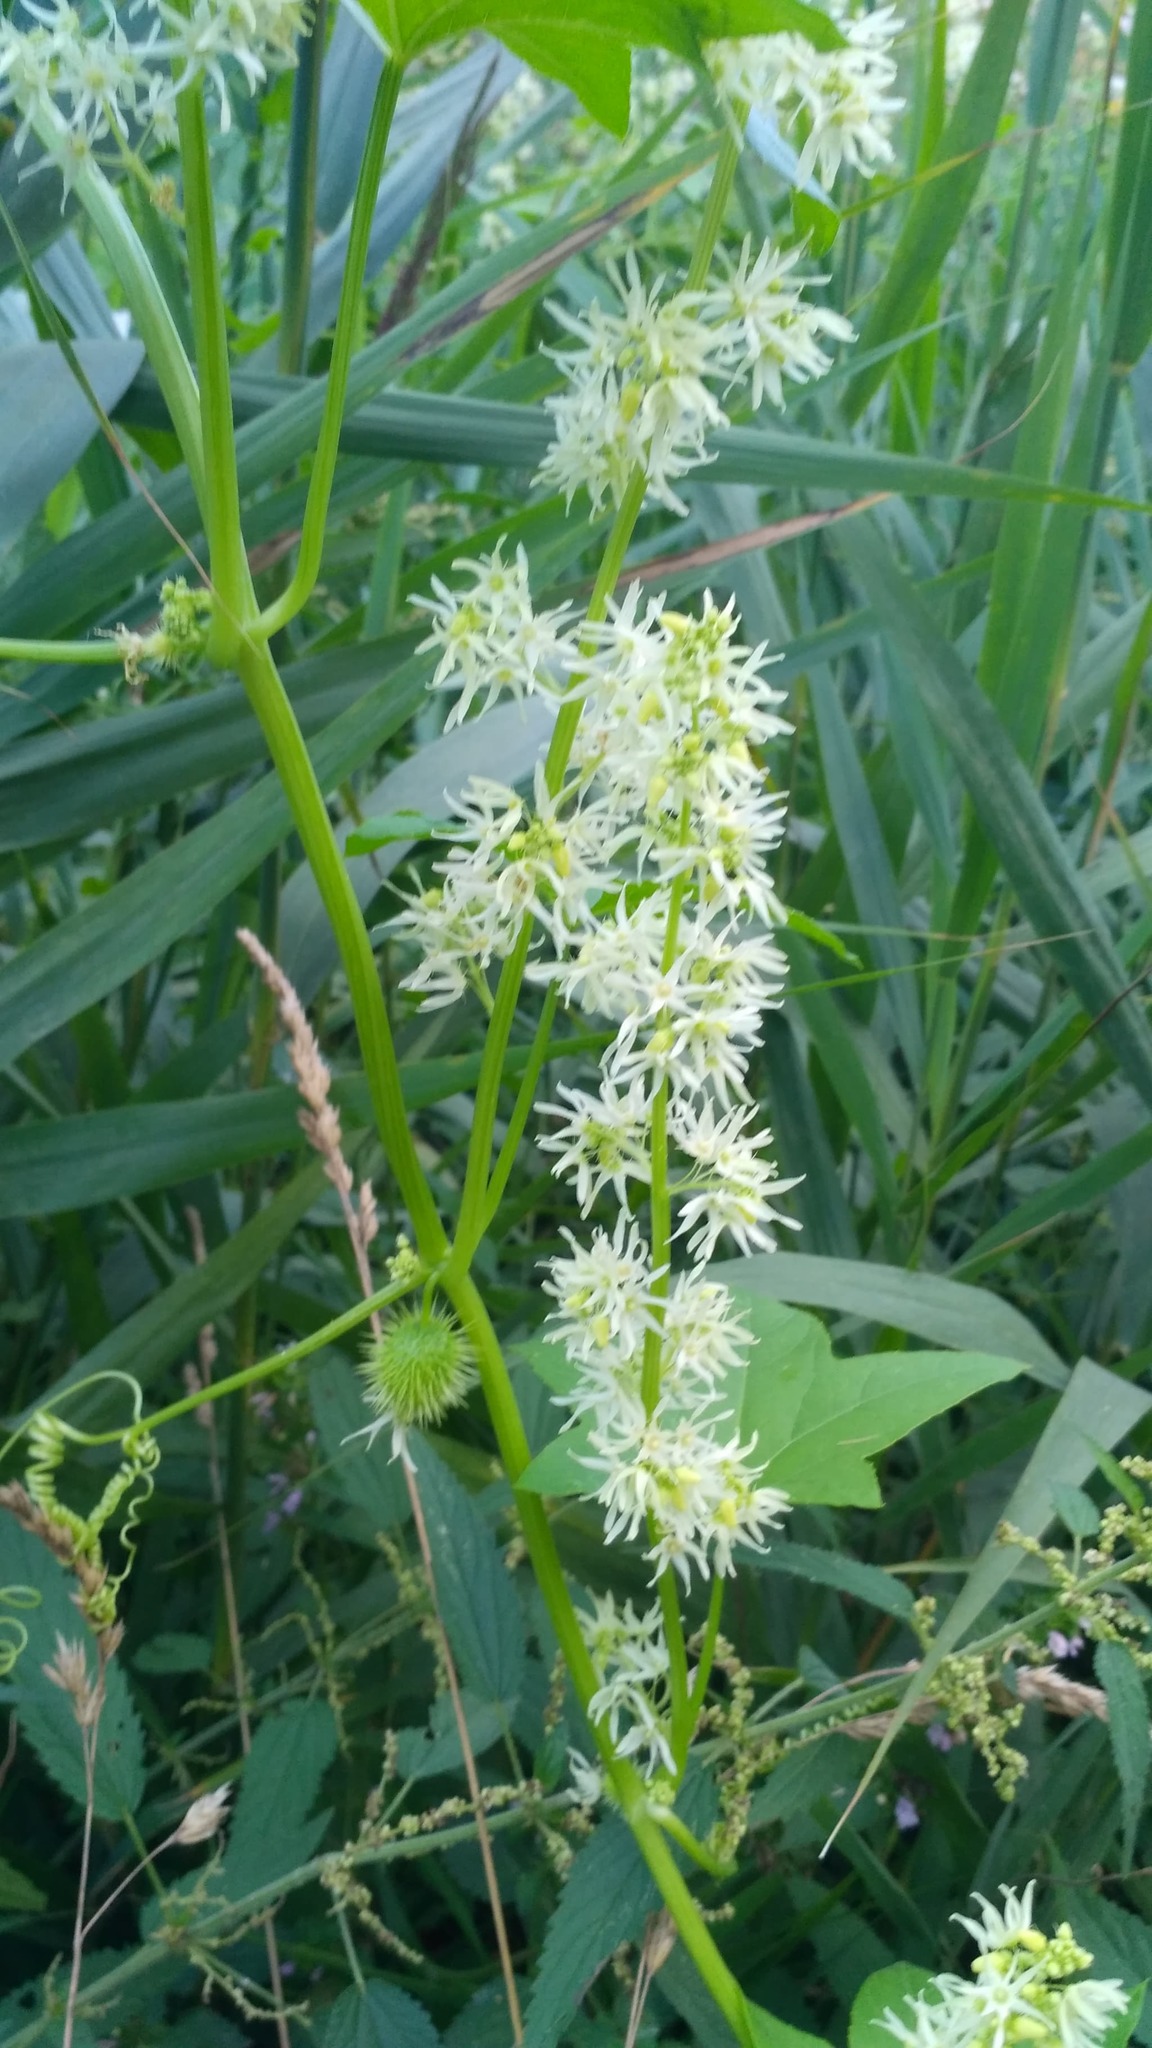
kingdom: Plantae
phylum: Tracheophyta
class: Magnoliopsida
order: Cucurbitales
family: Cucurbitaceae
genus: Echinocystis
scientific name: Echinocystis lobata
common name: Wild cucumber
